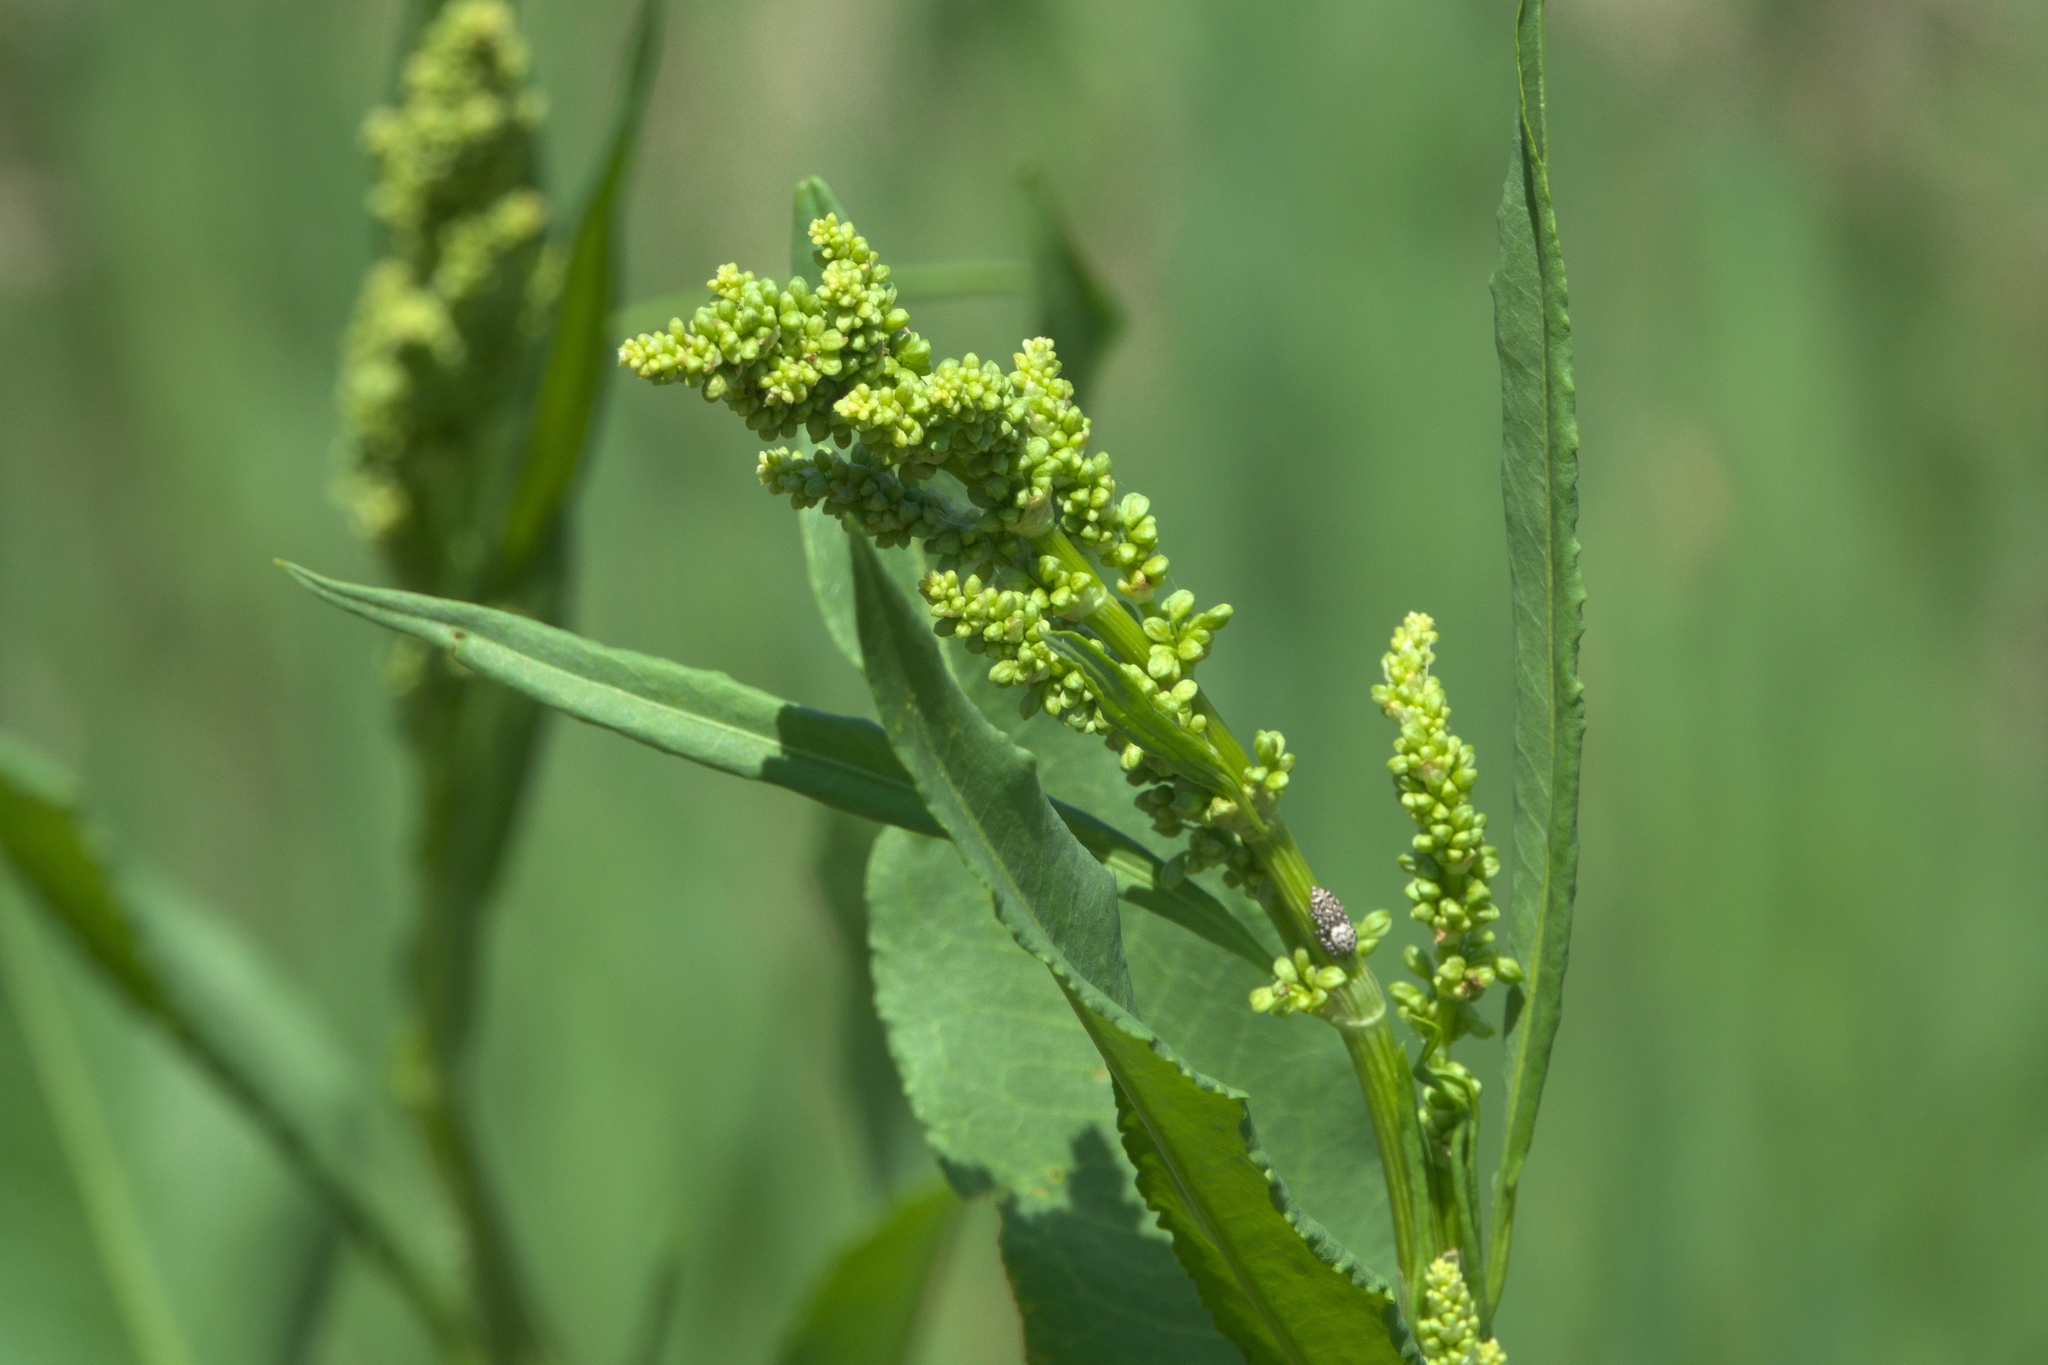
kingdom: Plantae
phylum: Tracheophyta
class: Magnoliopsida
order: Caryophyllales
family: Polygonaceae
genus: Rumex
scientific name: Rumex crispus
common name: Curled dock
